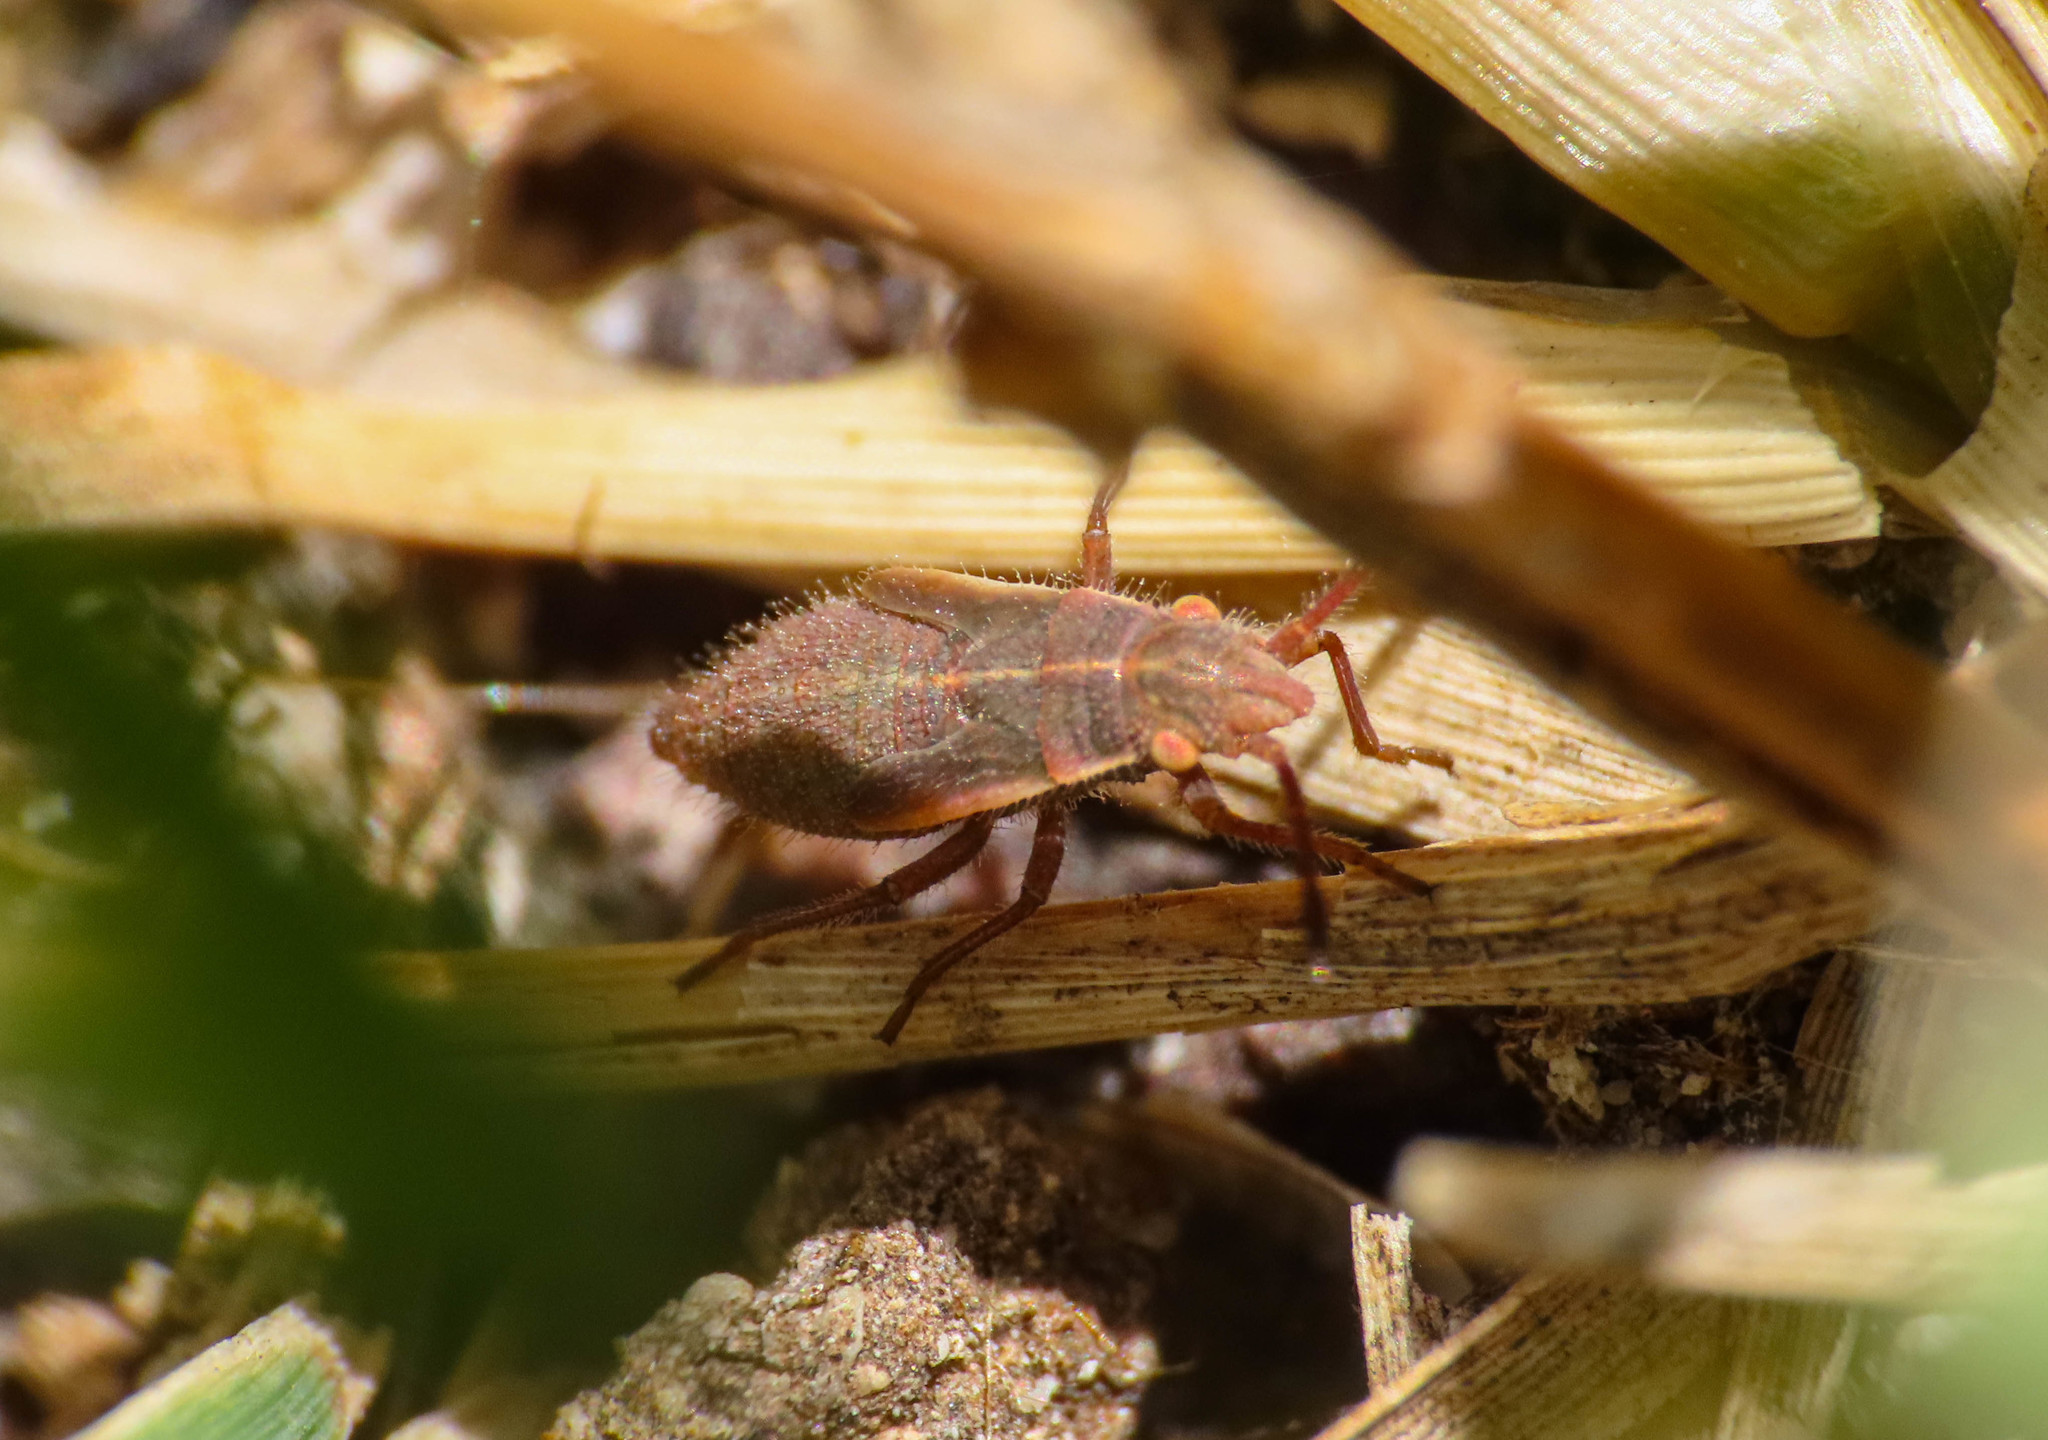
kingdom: Animalia
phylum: Arthropoda
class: Insecta
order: Hemiptera
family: Rhopalidae
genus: Agraphopus
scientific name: Agraphopus lethierryi
